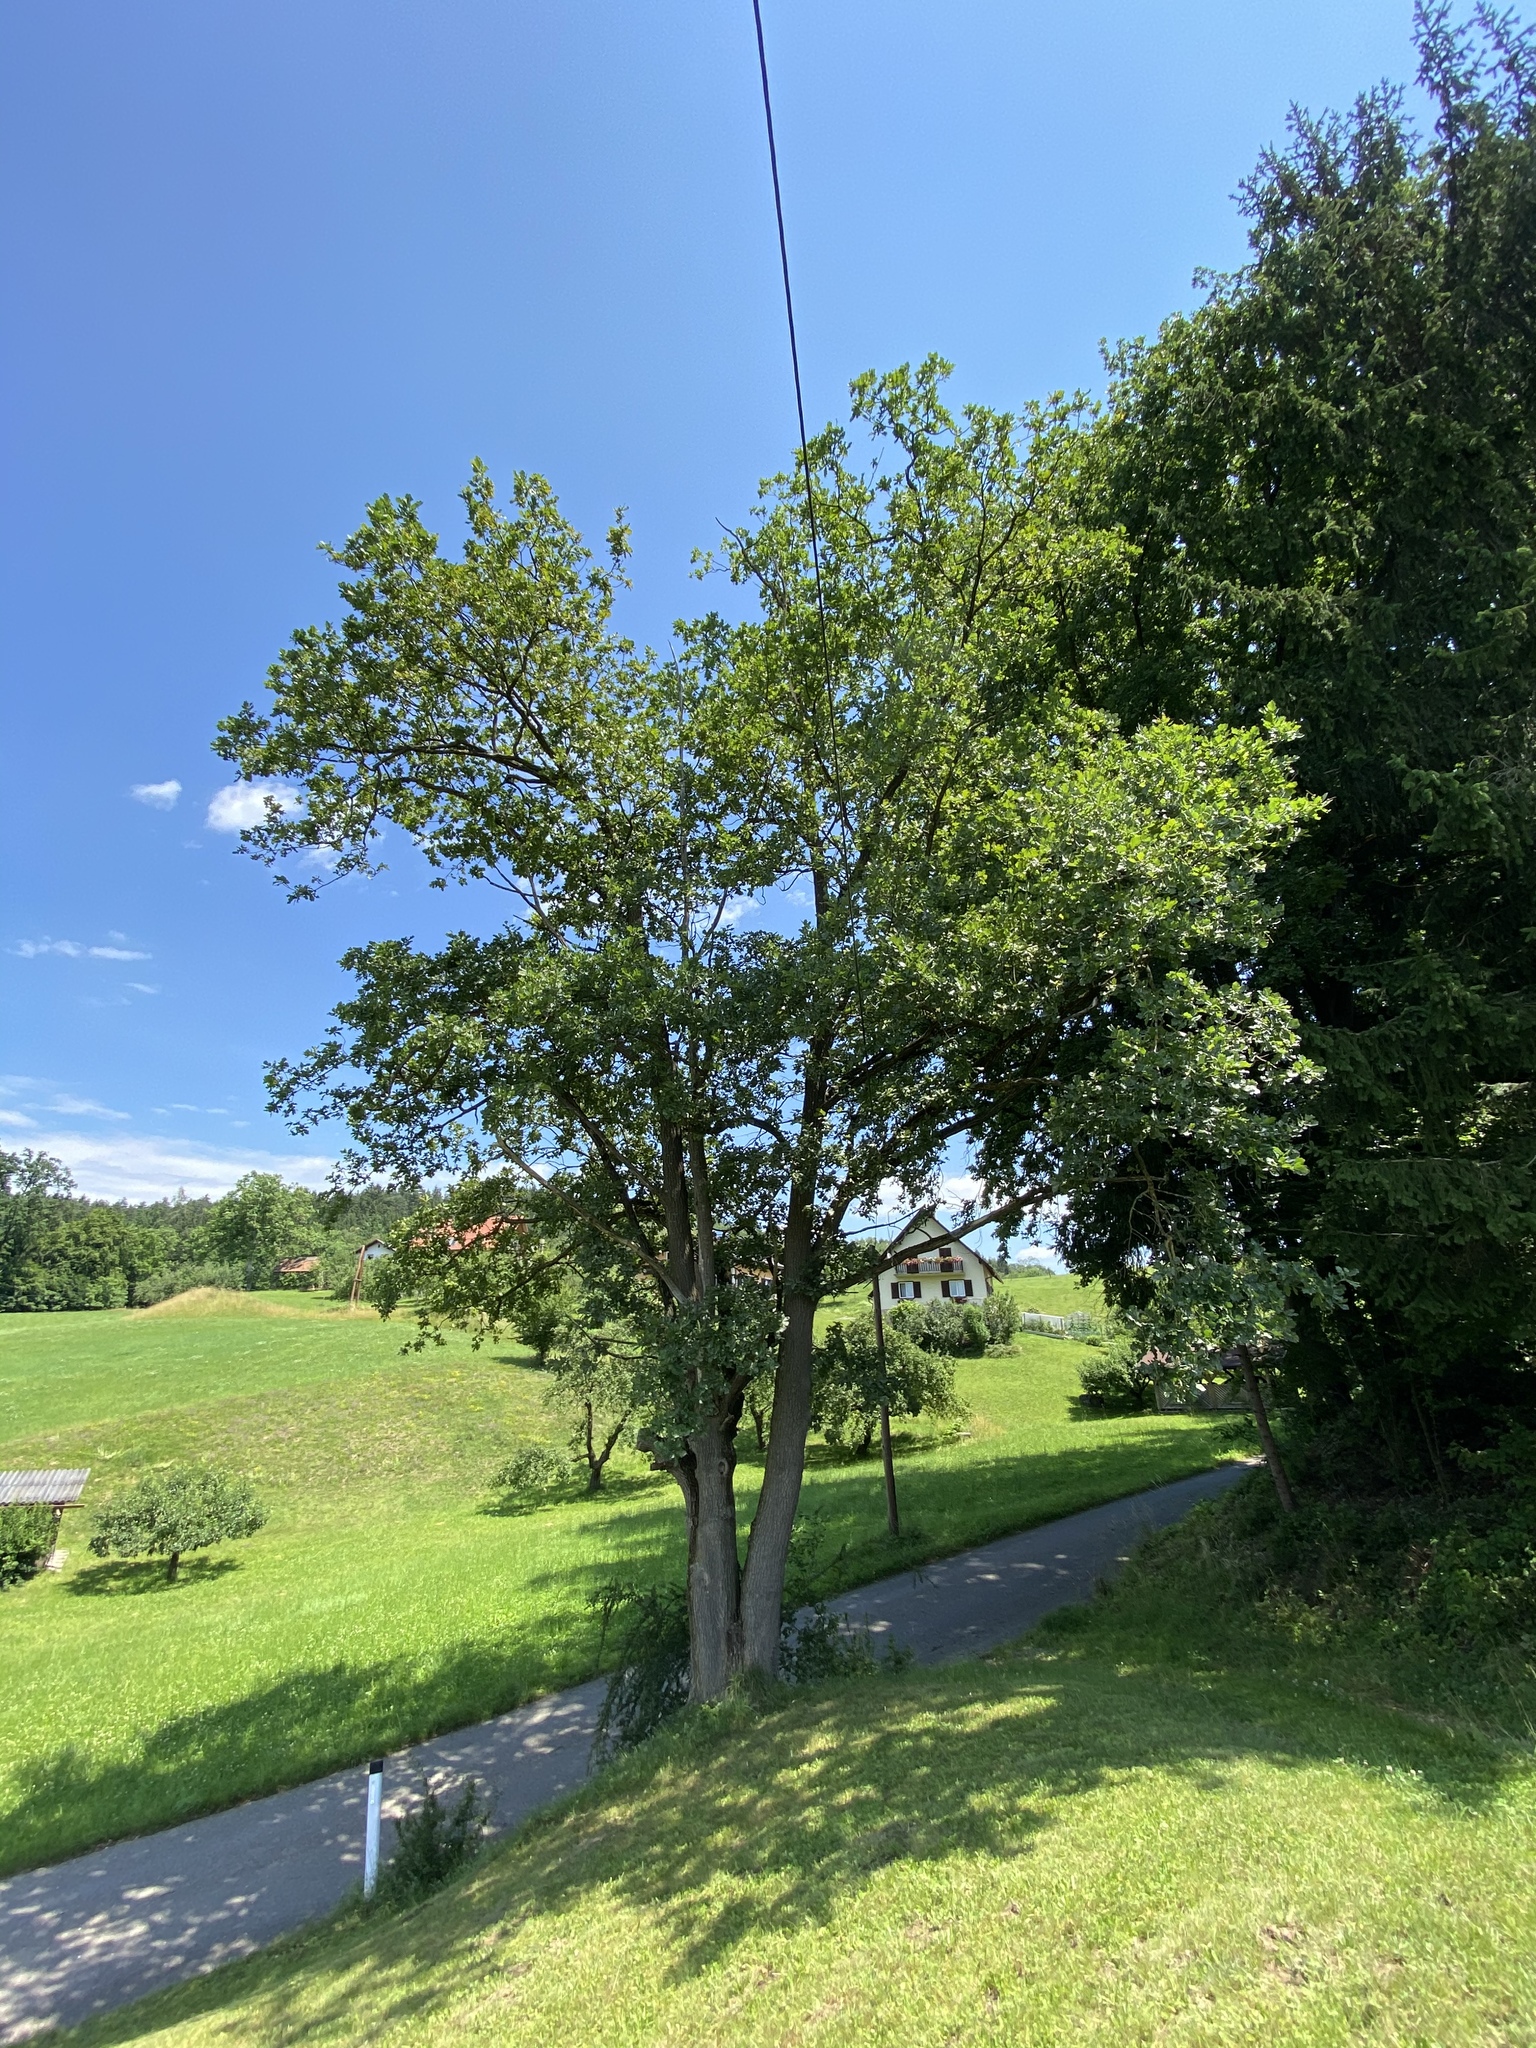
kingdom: Plantae
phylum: Tracheophyta
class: Magnoliopsida
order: Fagales
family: Fagaceae
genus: Quercus
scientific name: Quercus robur
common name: Pedunculate oak
